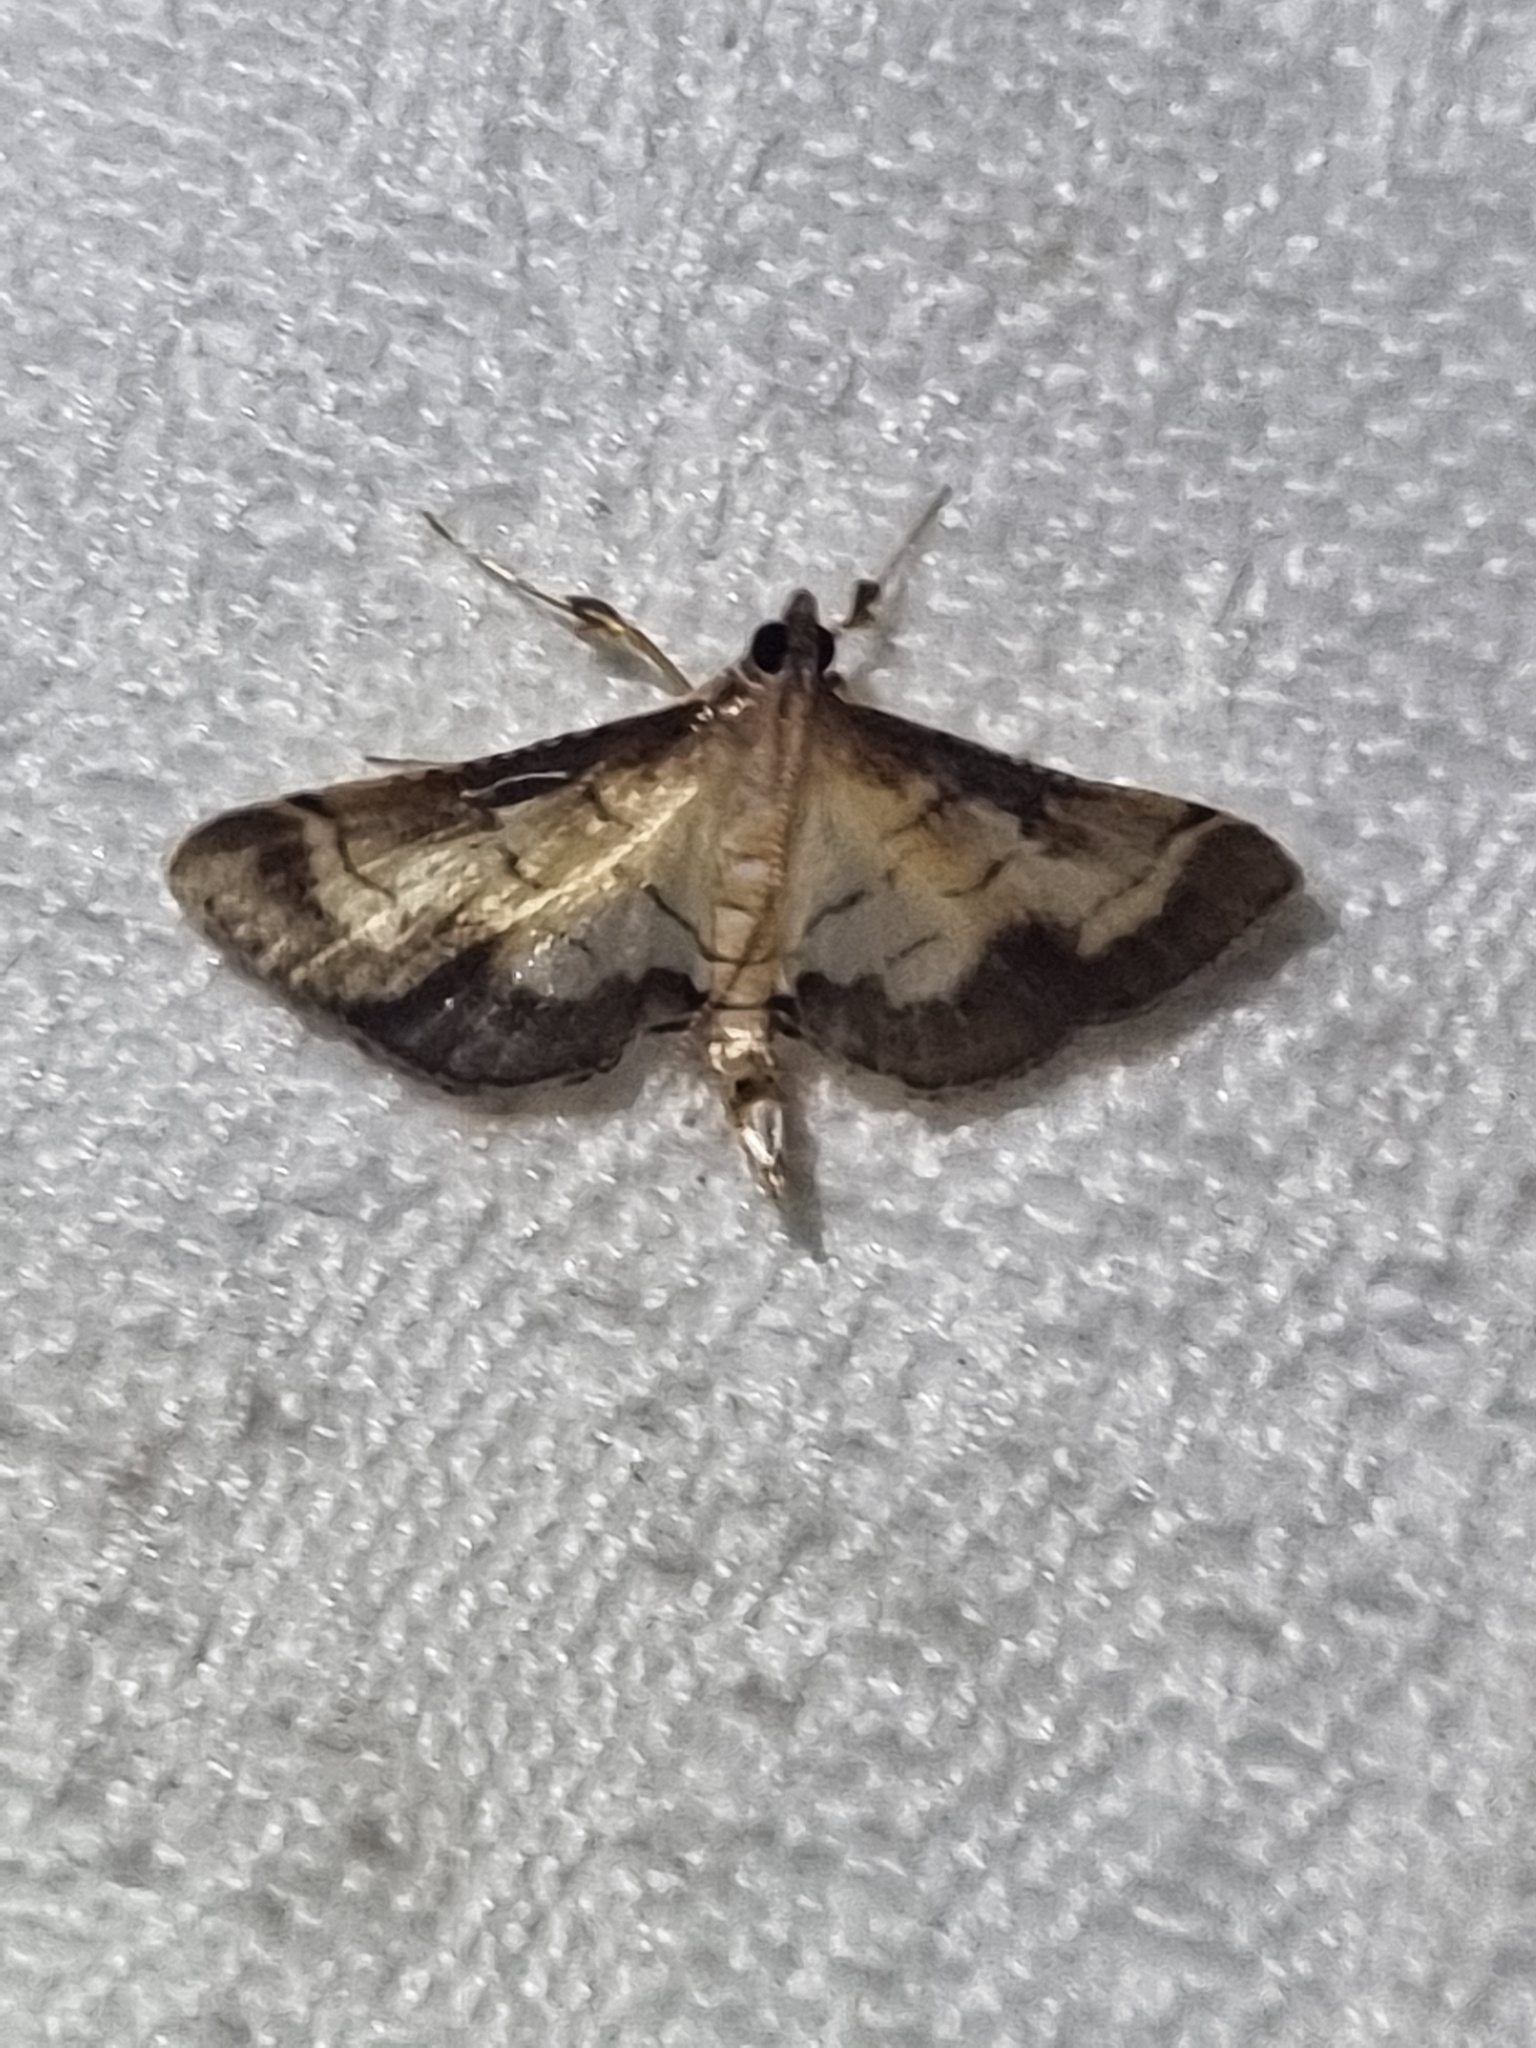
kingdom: Animalia
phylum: Arthropoda
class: Insecta
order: Lepidoptera
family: Crambidae
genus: Cnaphalocrocis
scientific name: Cnaphalocrocis poeyalis
